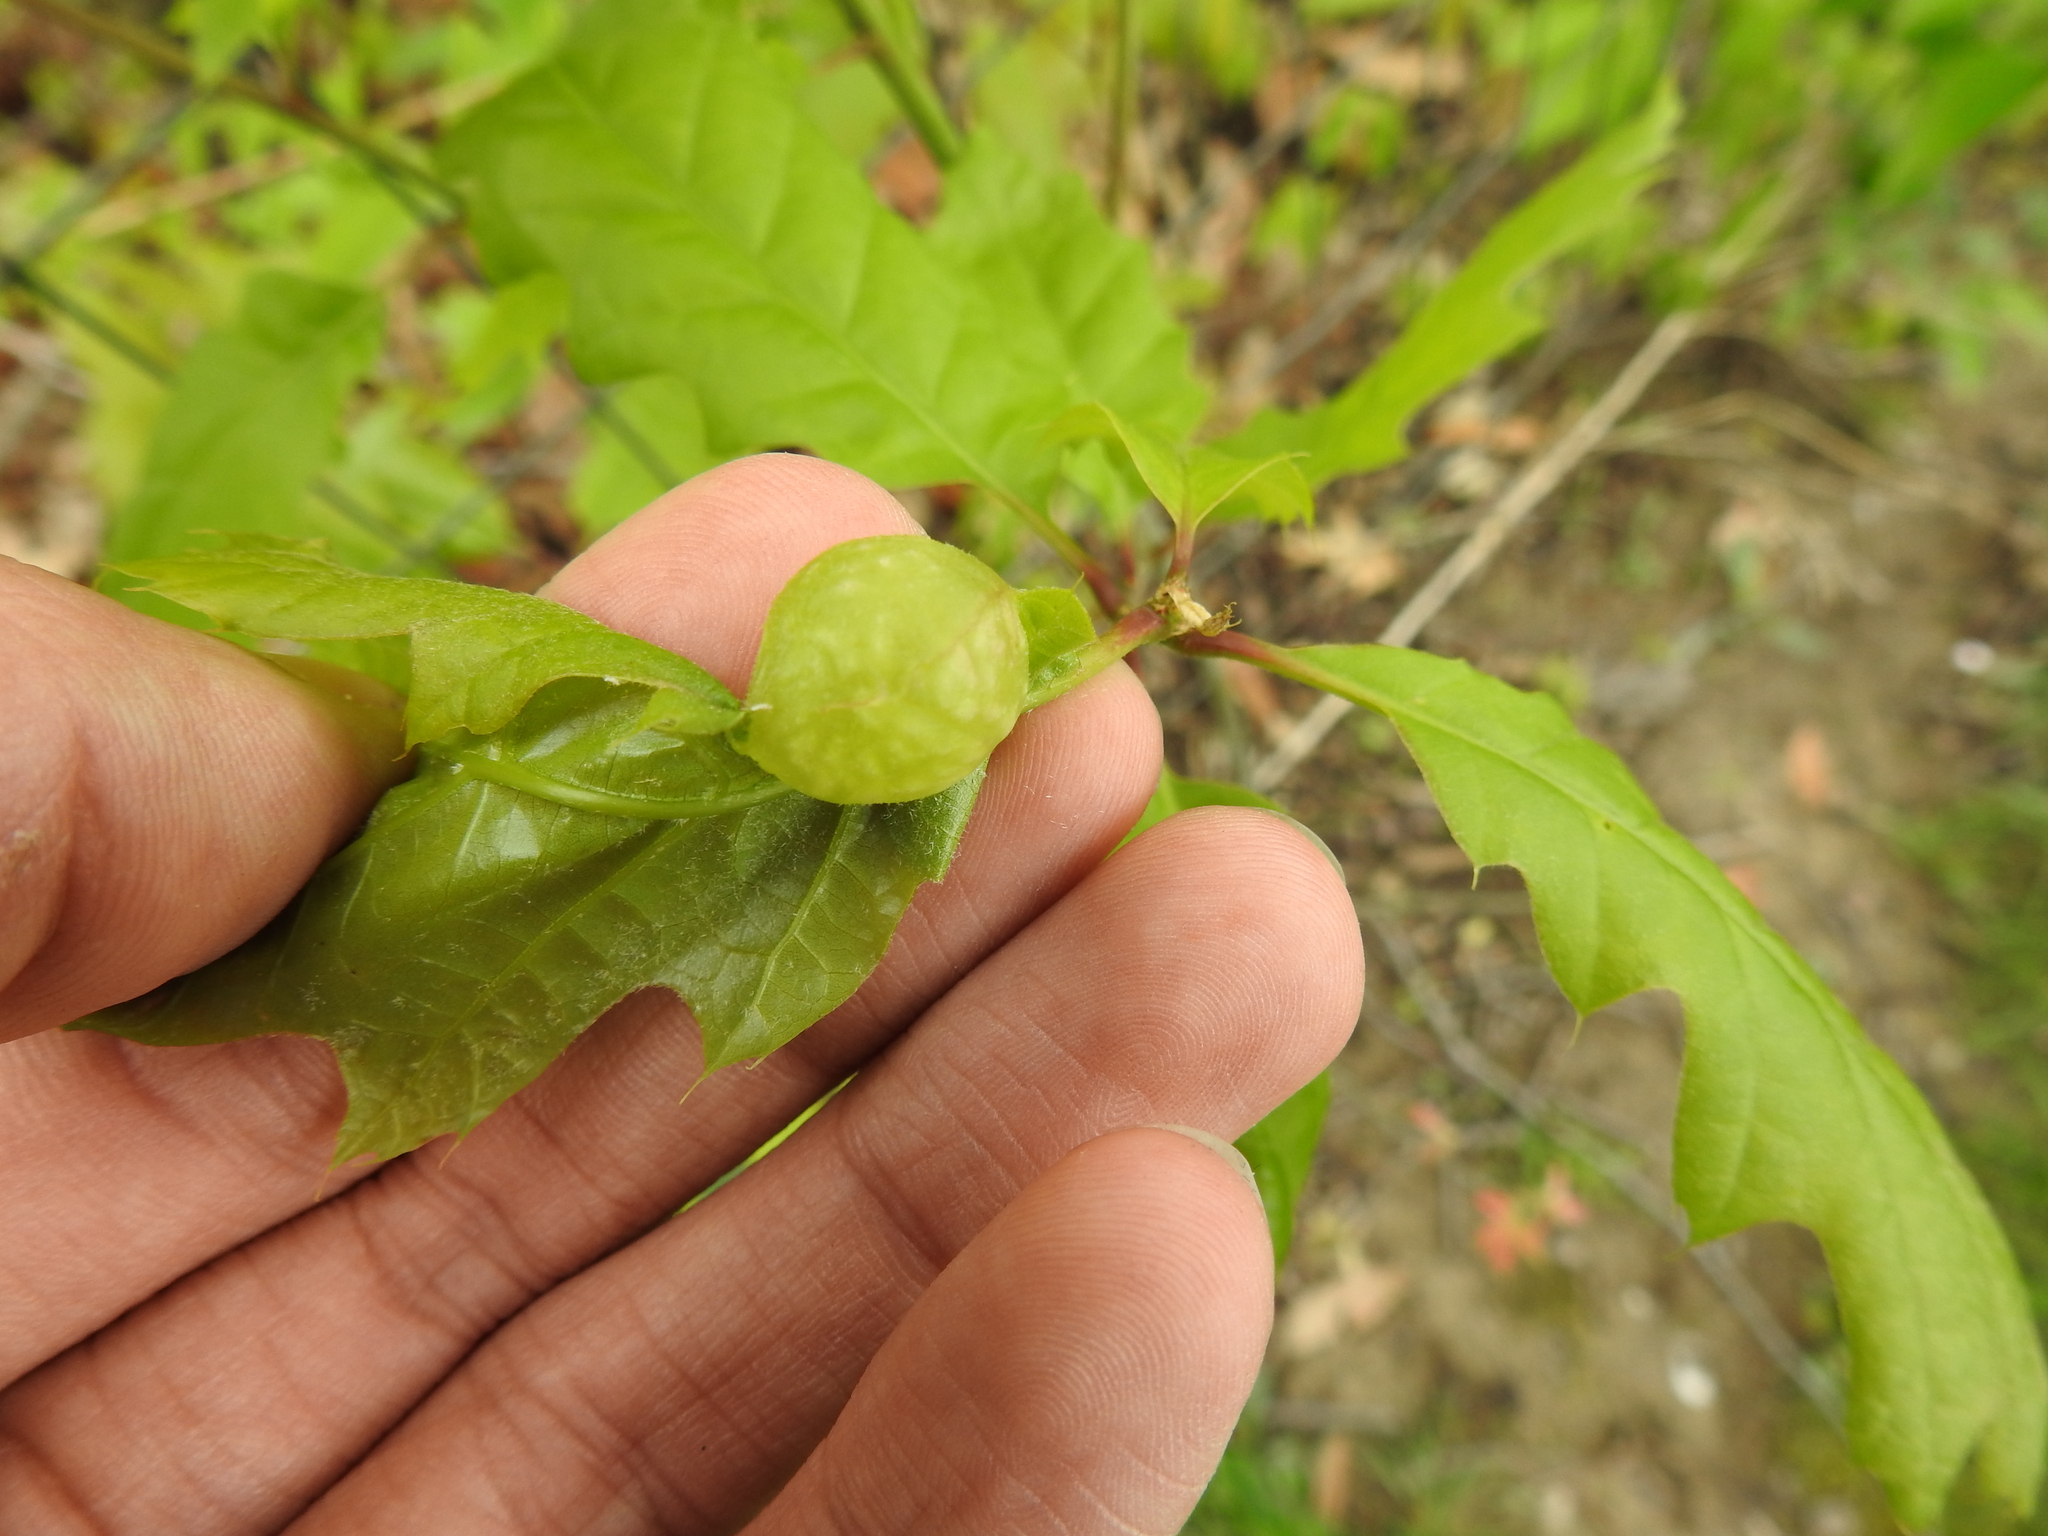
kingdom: Animalia
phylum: Arthropoda
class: Insecta
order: Hymenoptera
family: Cynipidae
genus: Dryocosmus
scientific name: Dryocosmus quercuspalustris
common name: Succulent oak gall wasp
